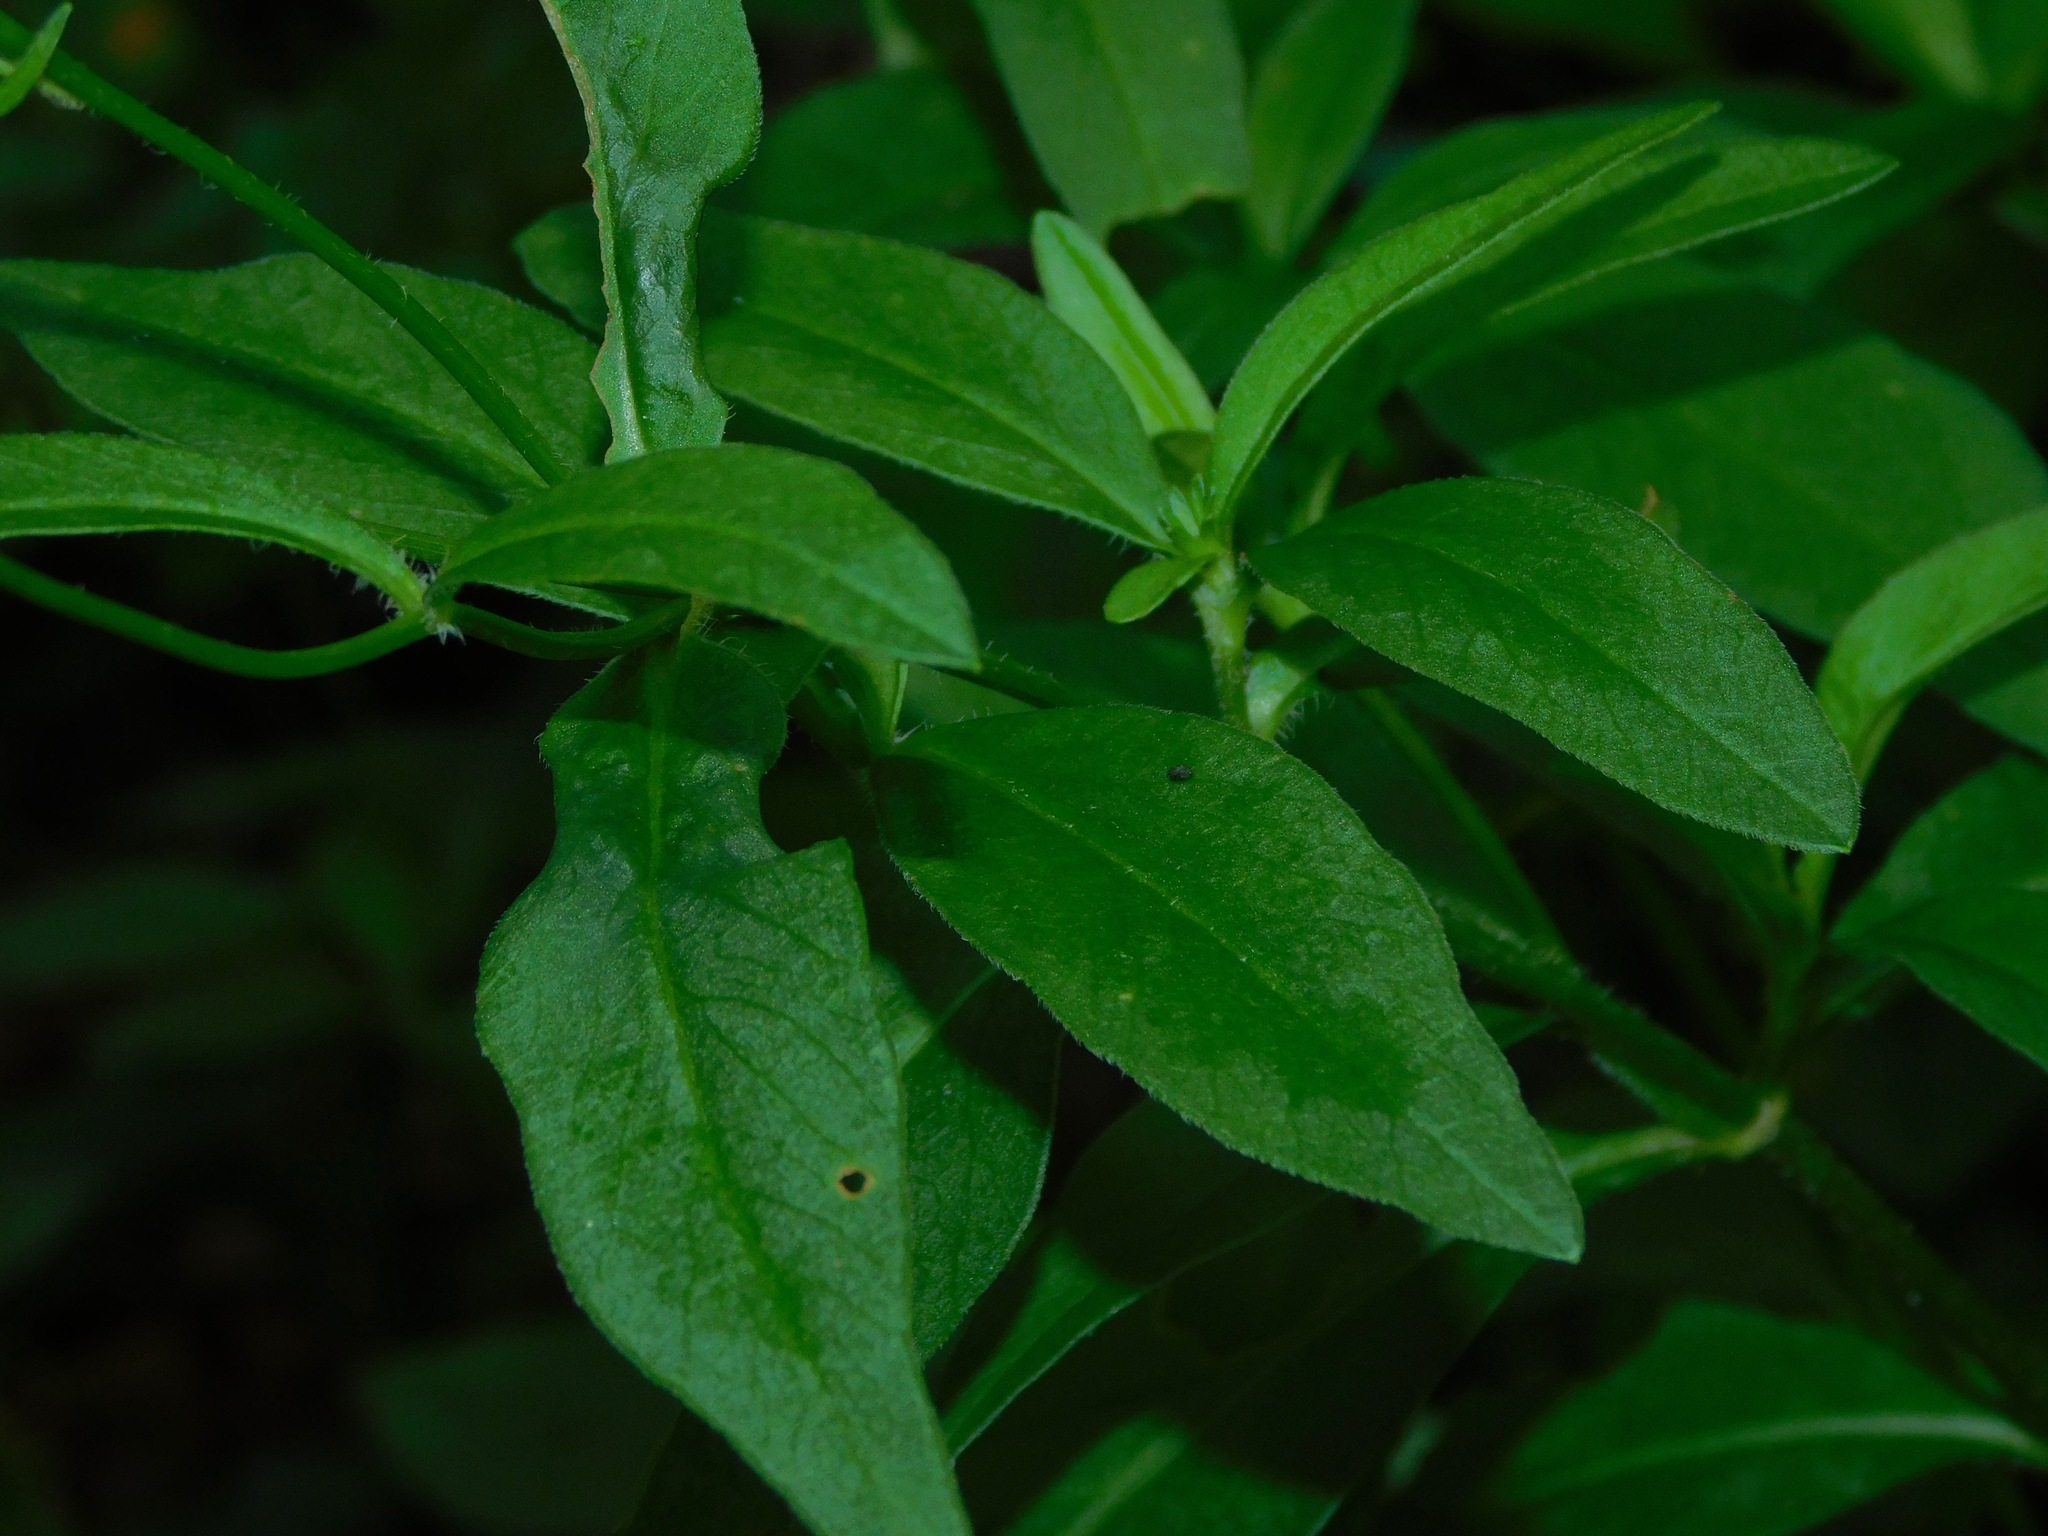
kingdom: Plantae
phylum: Tracheophyta
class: Magnoliopsida
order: Asterales
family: Asteraceae
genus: Coreopsis
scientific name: Coreopsis pubescens
